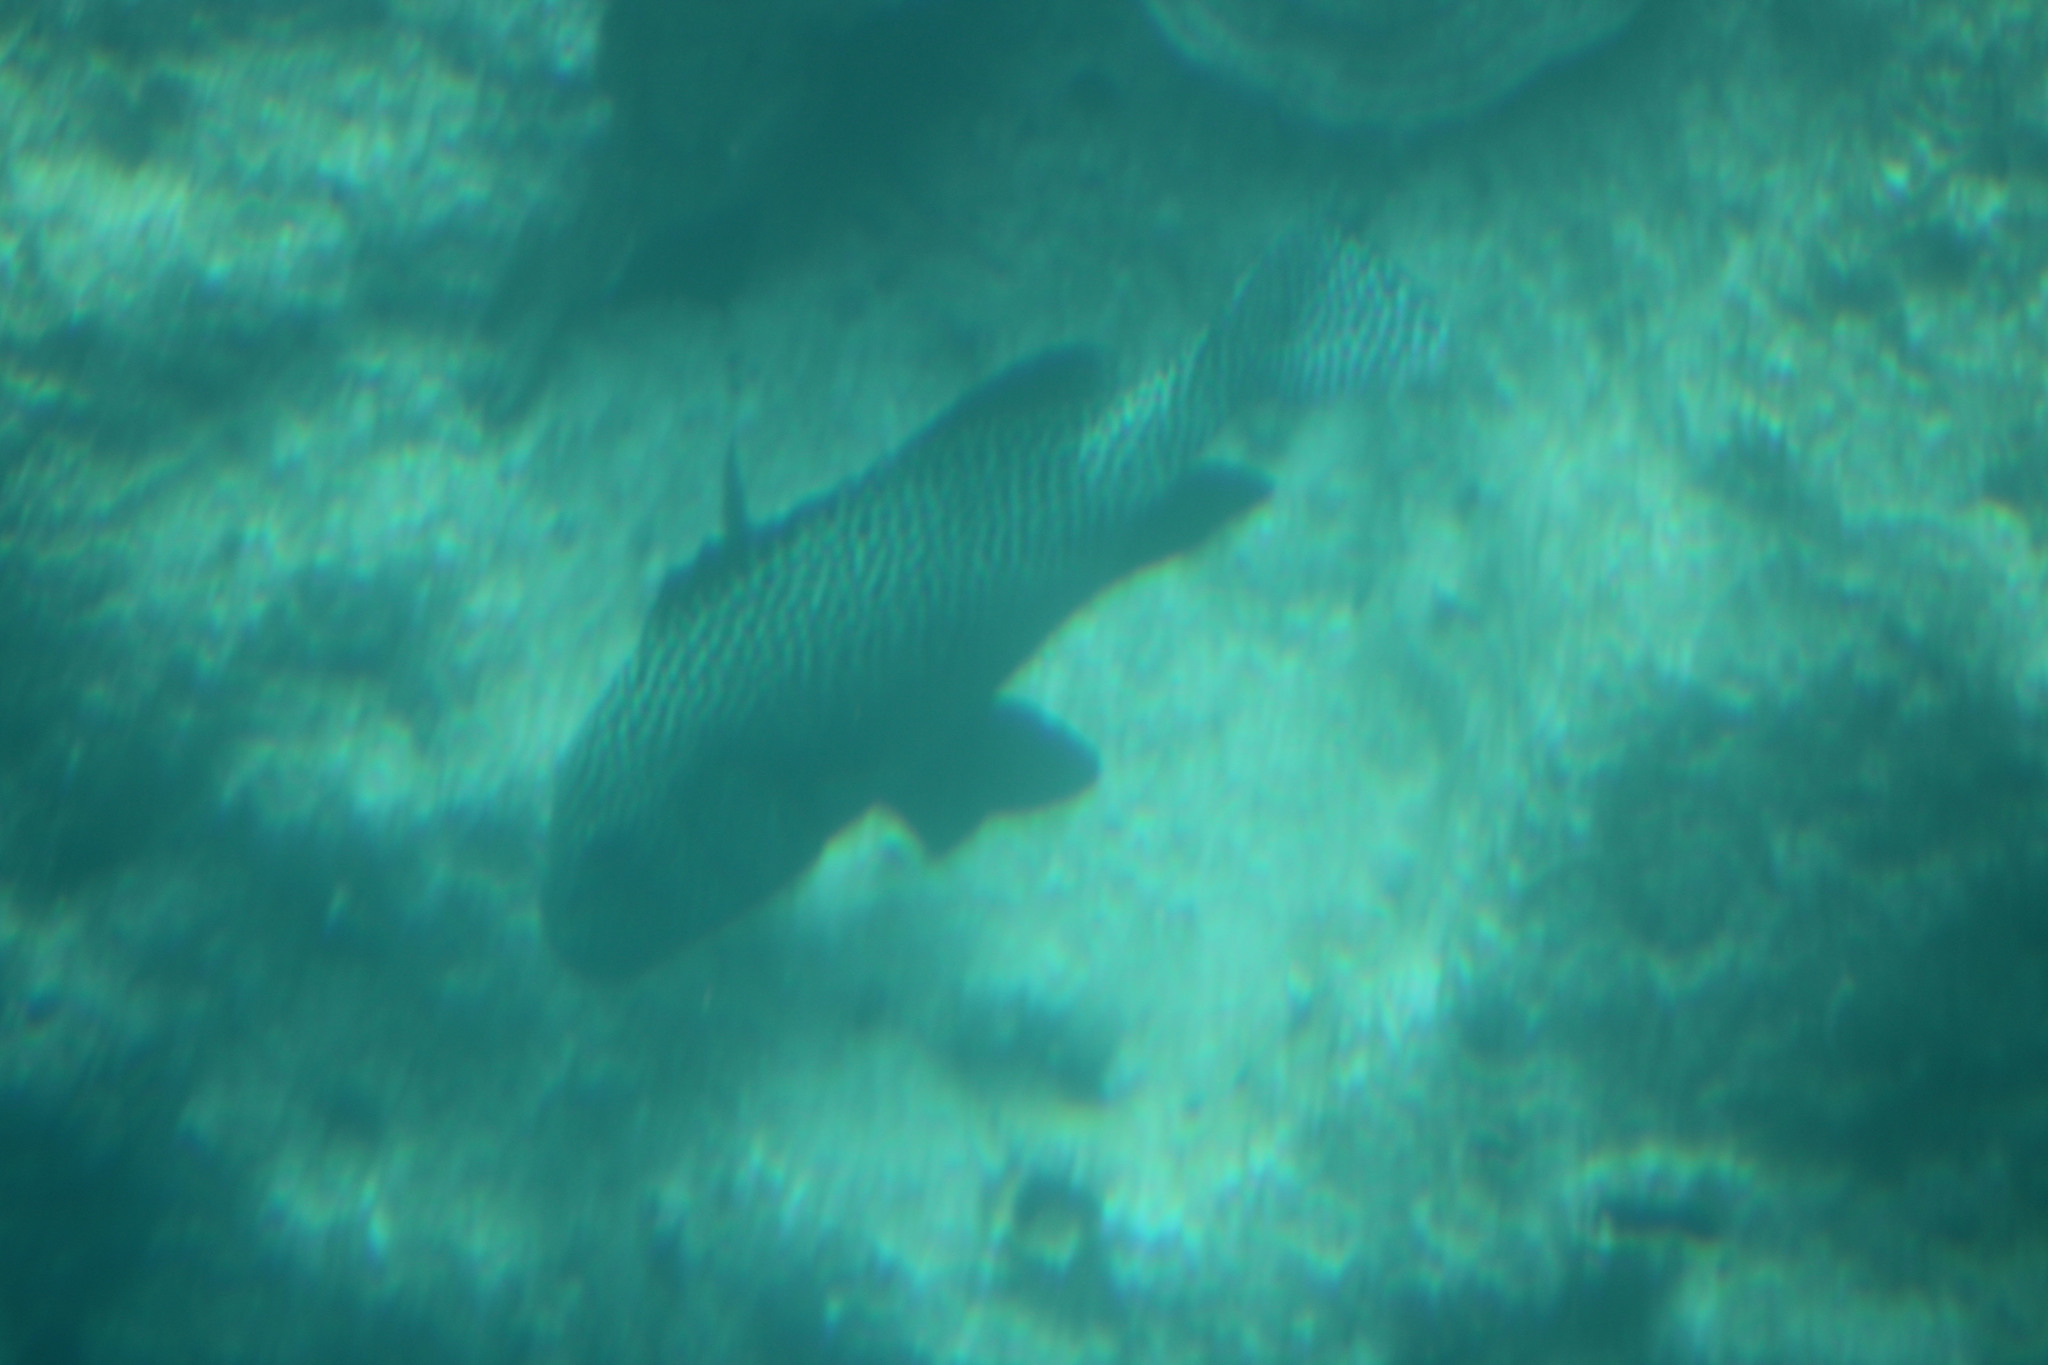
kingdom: Animalia
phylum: Chordata
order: Perciformes
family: Haemulidae
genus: Plectorhinchus
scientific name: Plectorhinchus picus
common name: Spotted sweetlips
